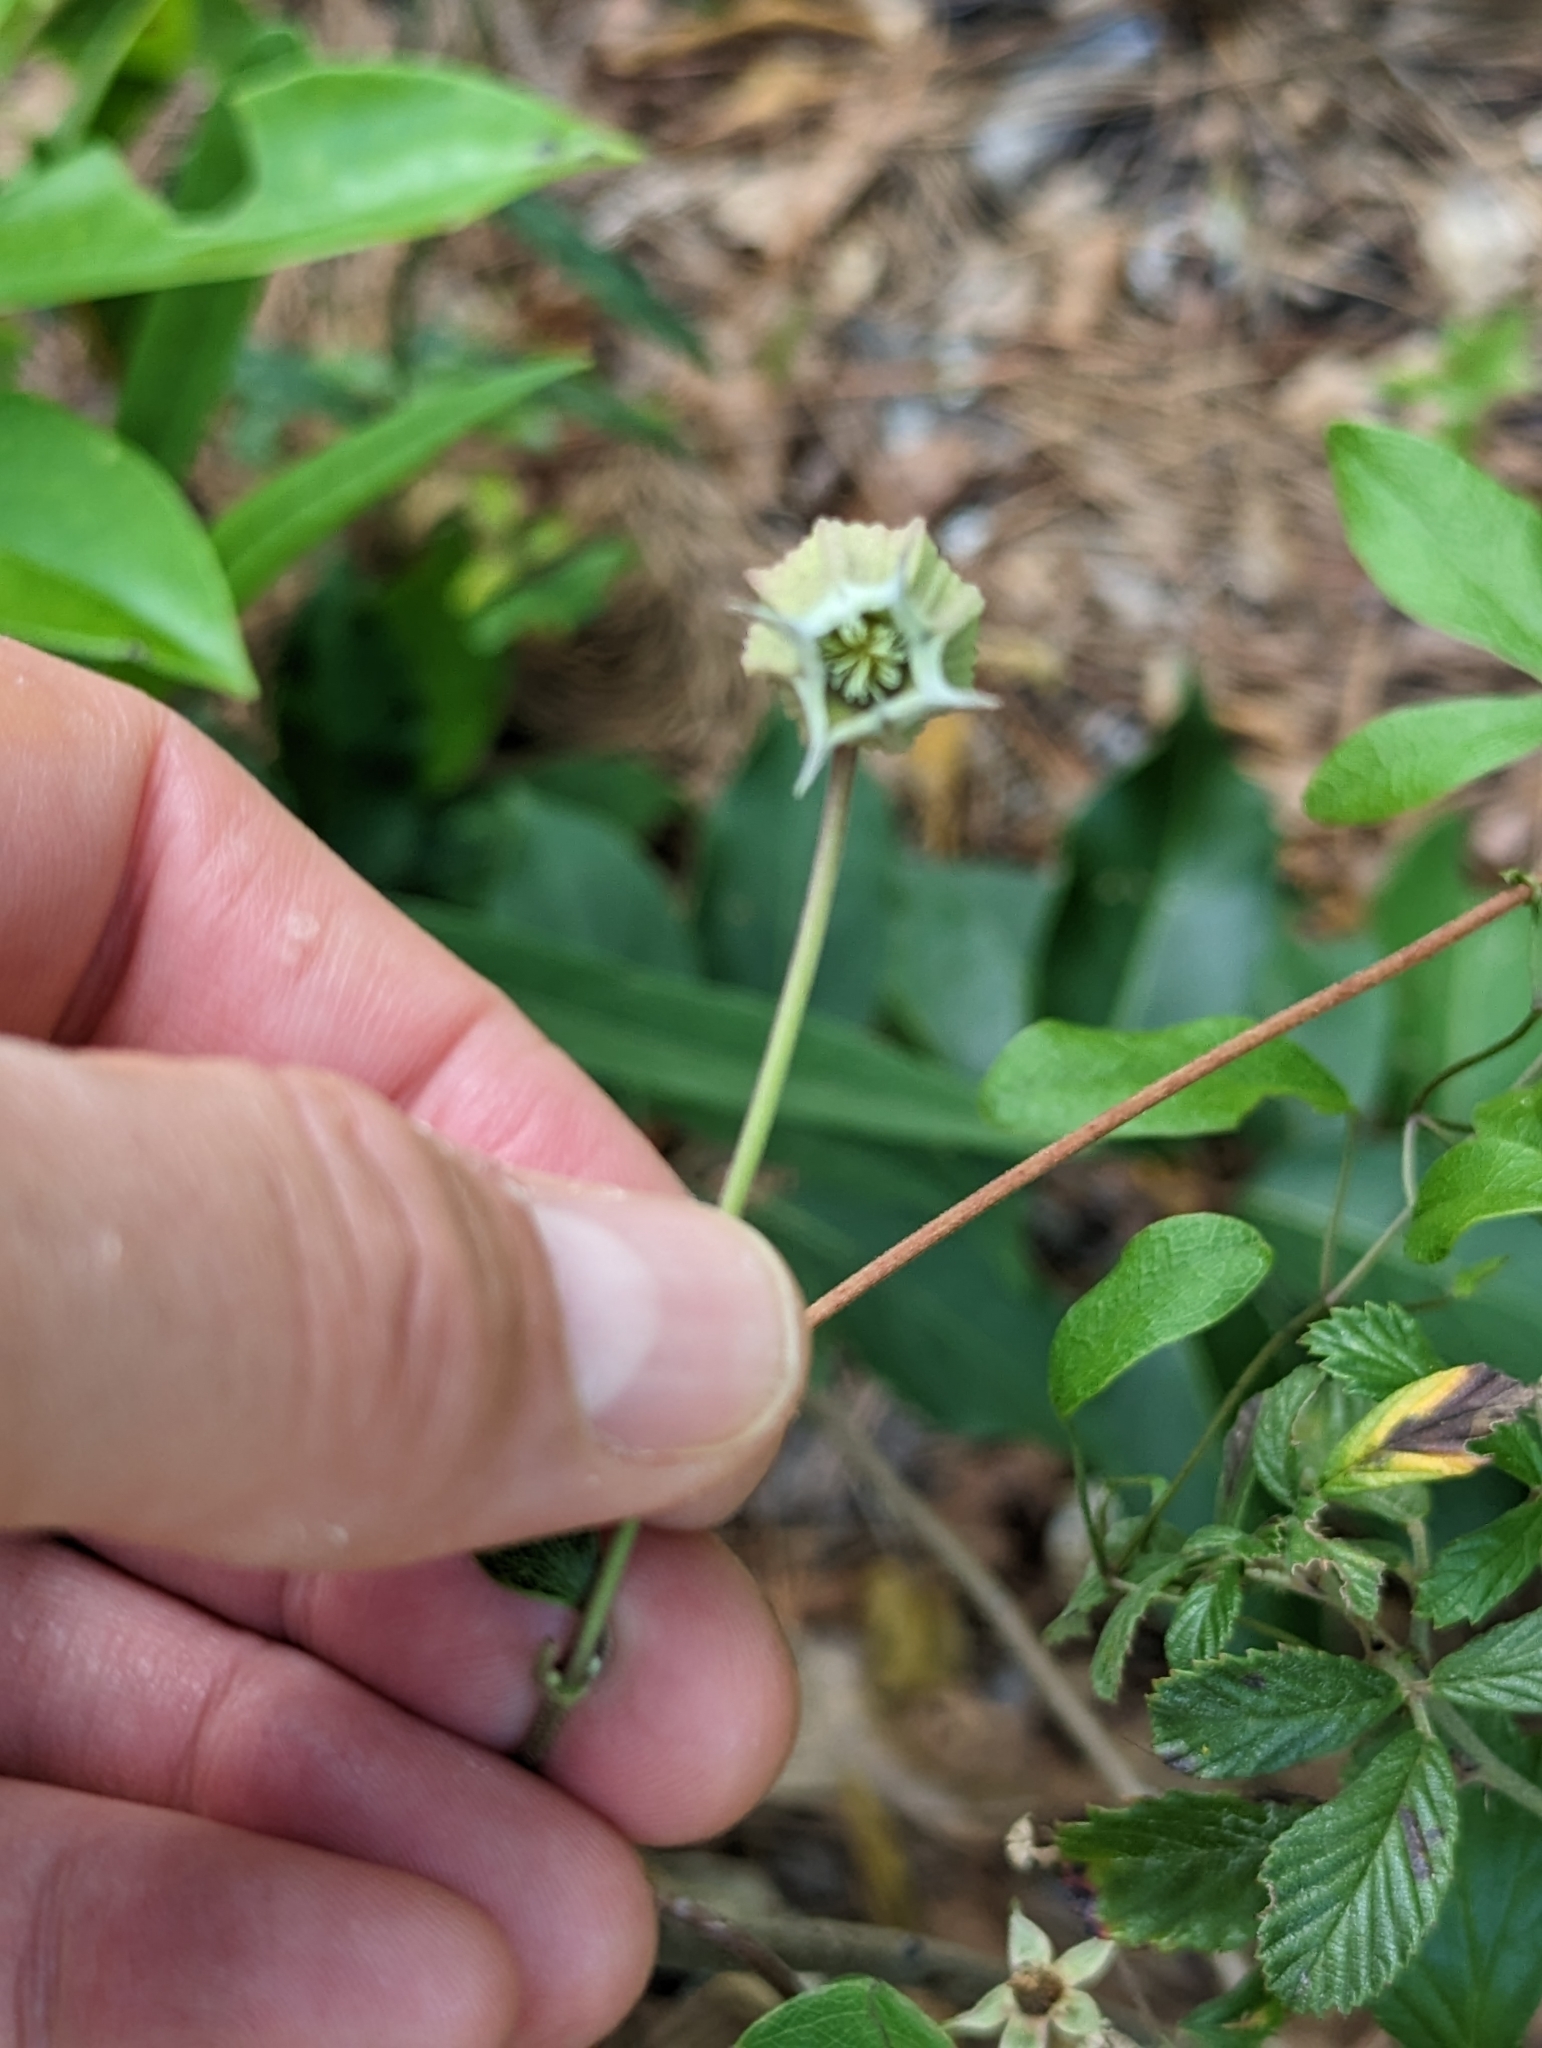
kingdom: Plantae
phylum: Tracheophyta
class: Magnoliopsida
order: Ranunculales
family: Ranunculaceae
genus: Clematis
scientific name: Clematis reticulata
